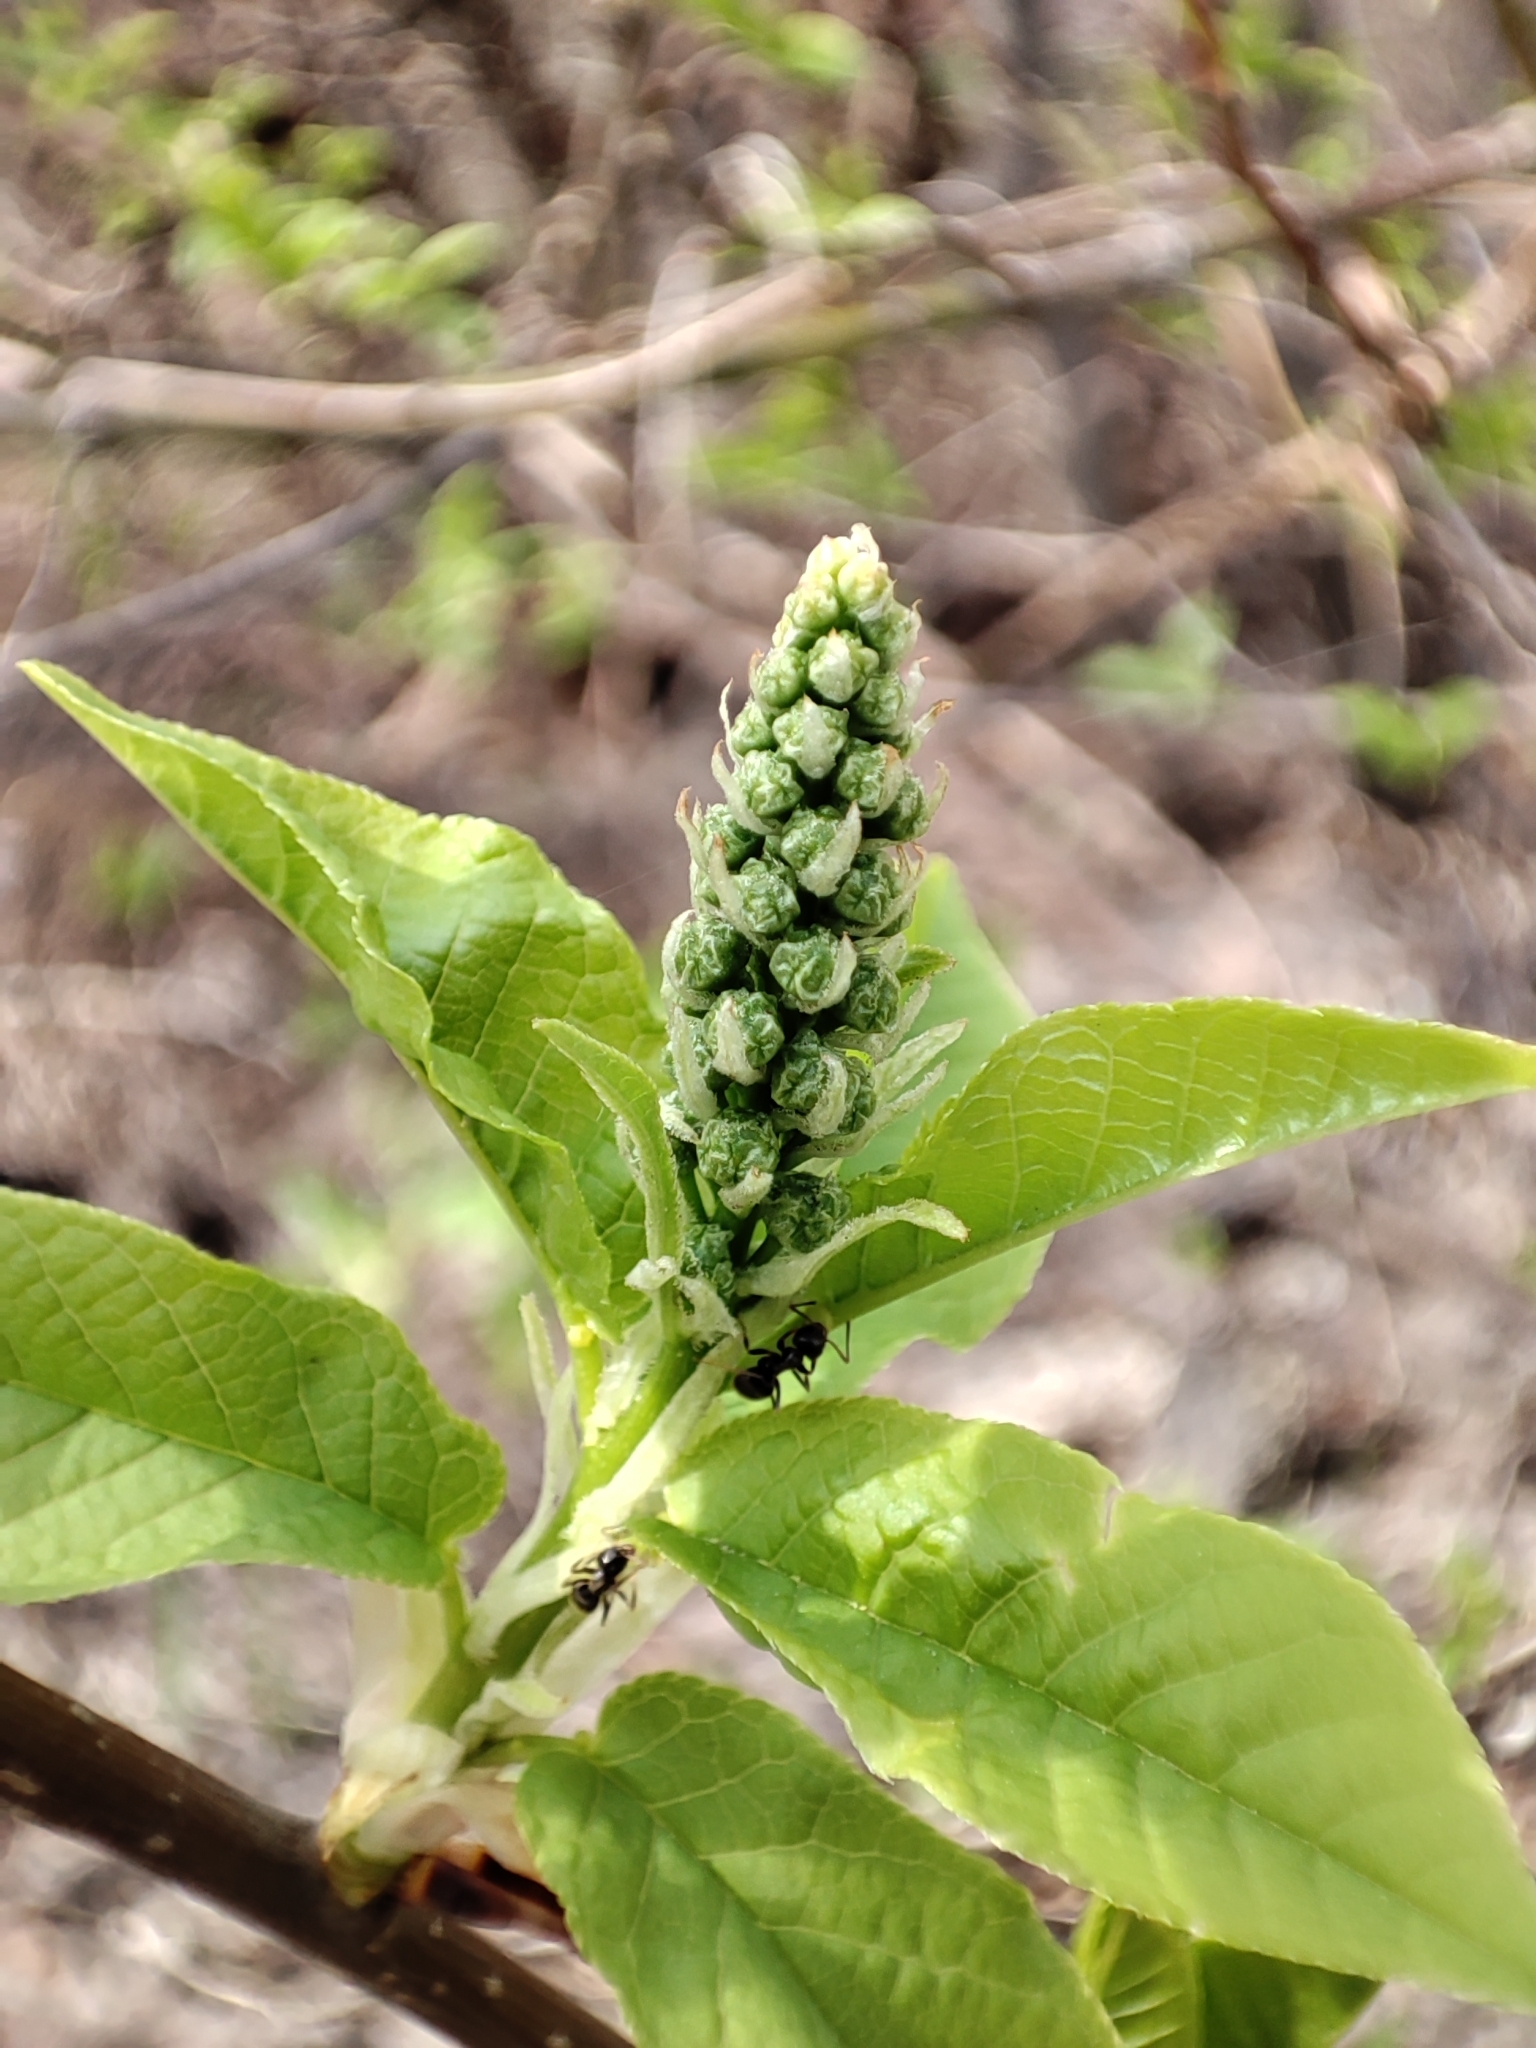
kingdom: Plantae
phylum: Tracheophyta
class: Magnoliopsida
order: Rosales
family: Rosaceae
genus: Prunus
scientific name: Prunus padus
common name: Bird cherry
